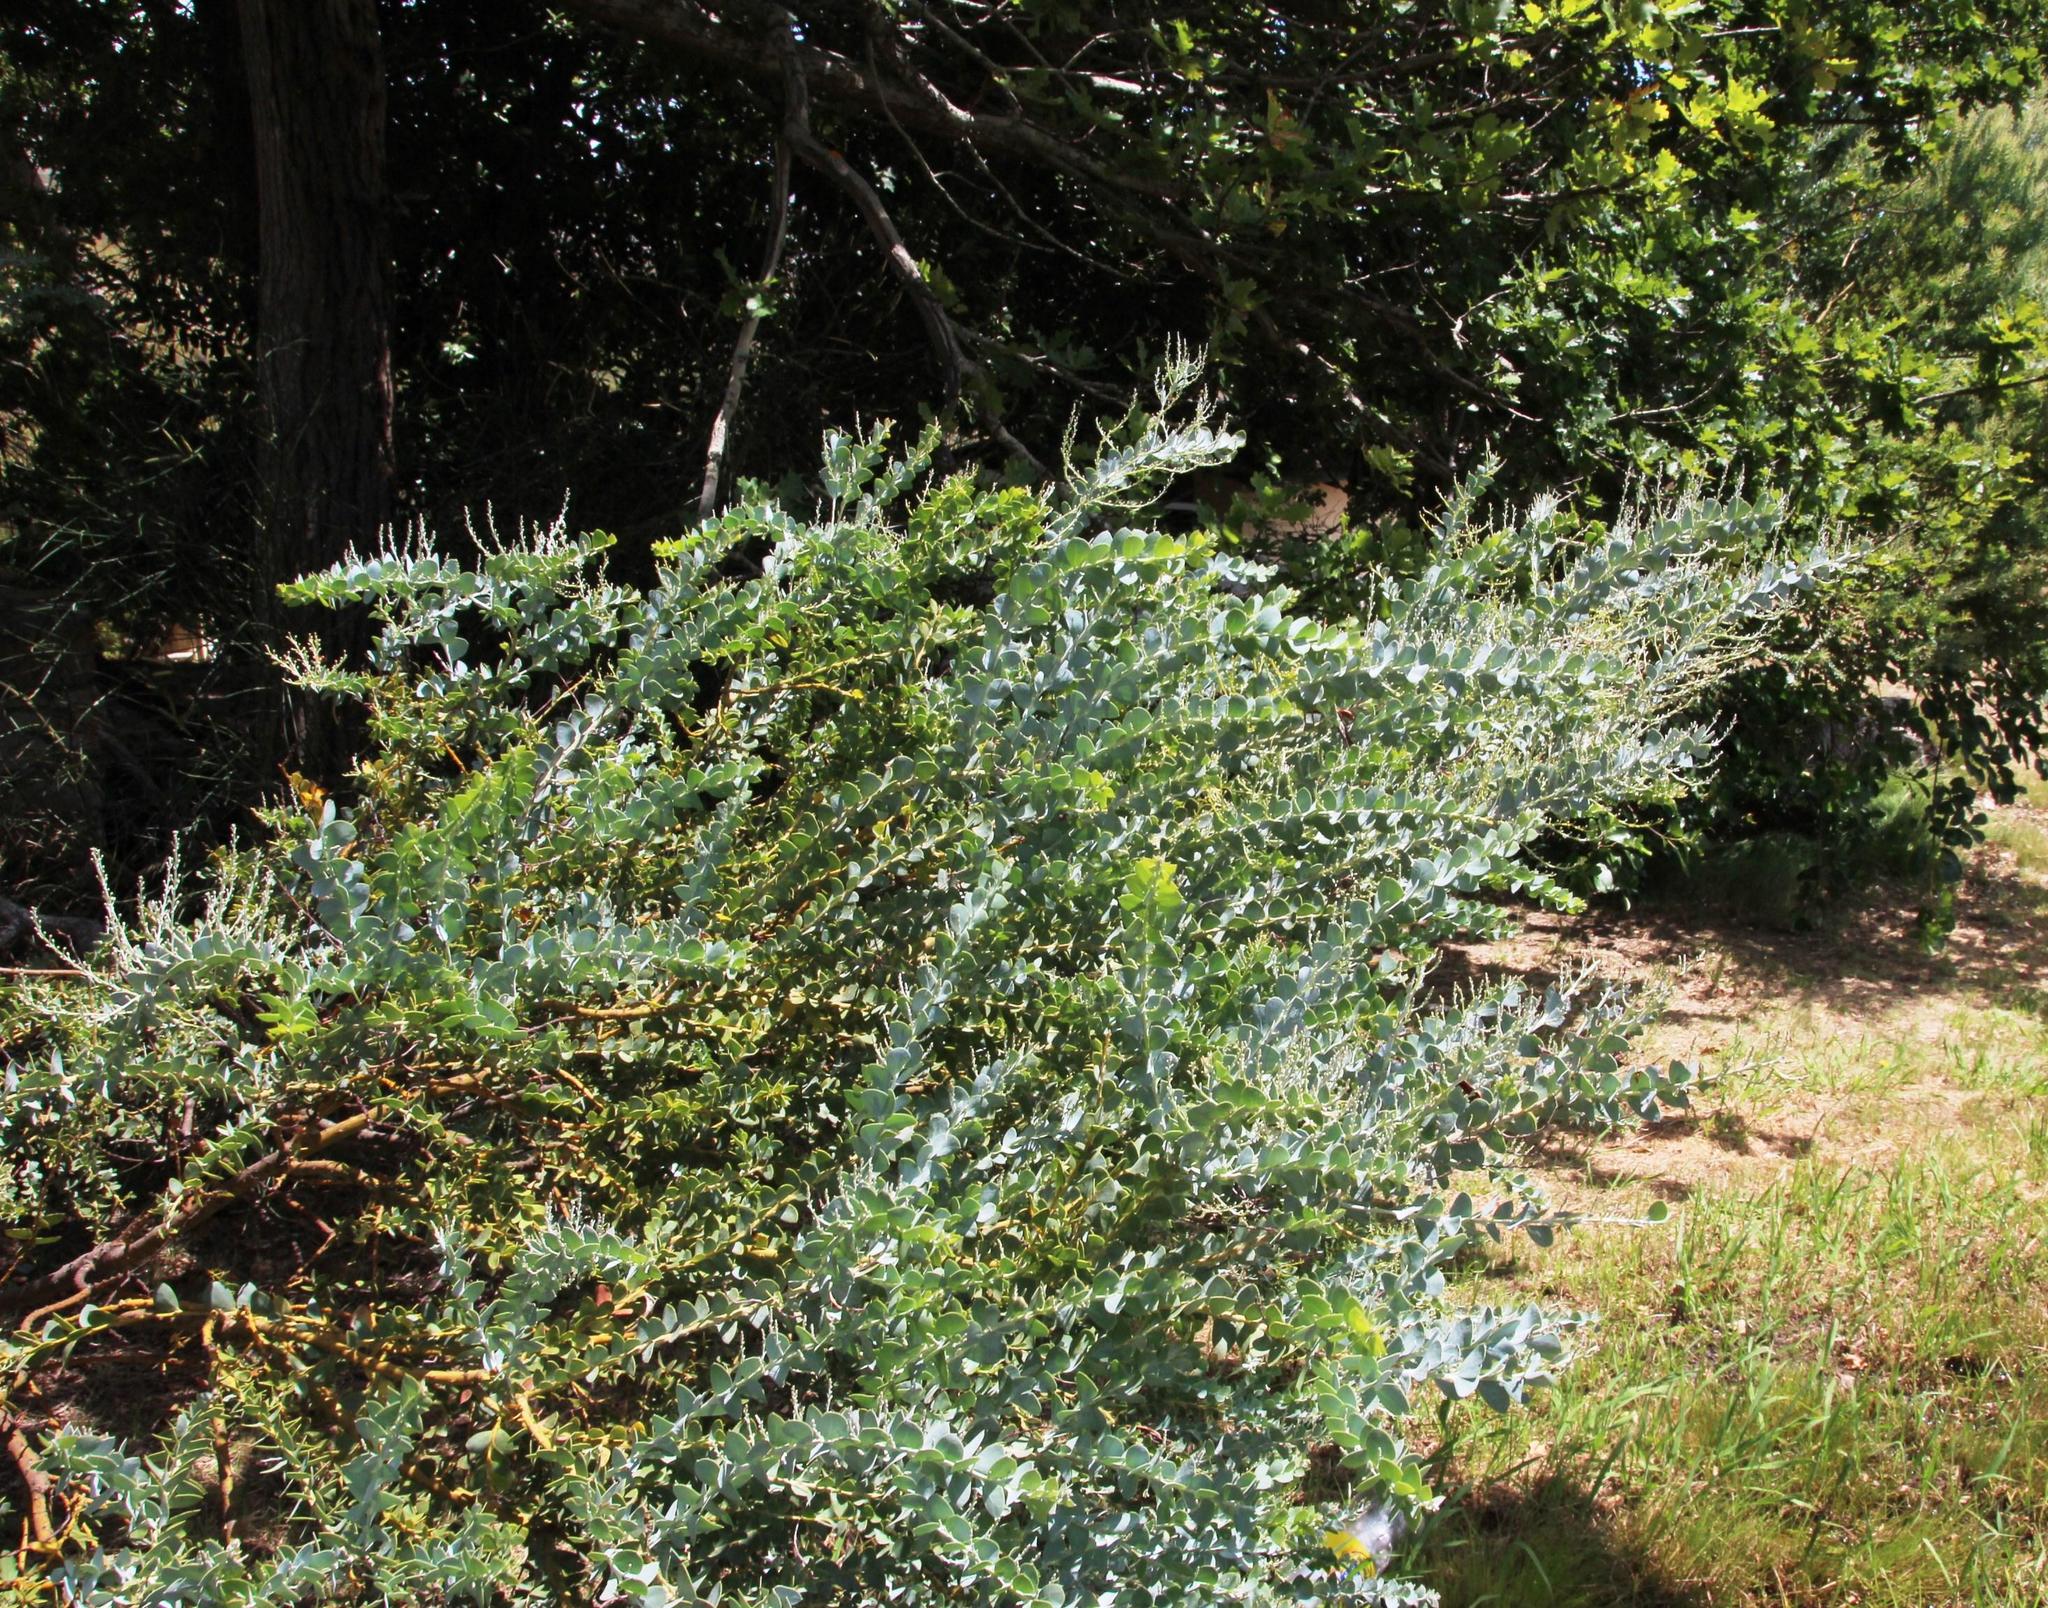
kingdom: Plantae
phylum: Tracheophyta
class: Magnoliopsida
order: Fabales
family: Fabaceae
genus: Acacia
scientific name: Acacia podalyriifolia
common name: Pearl wattle
